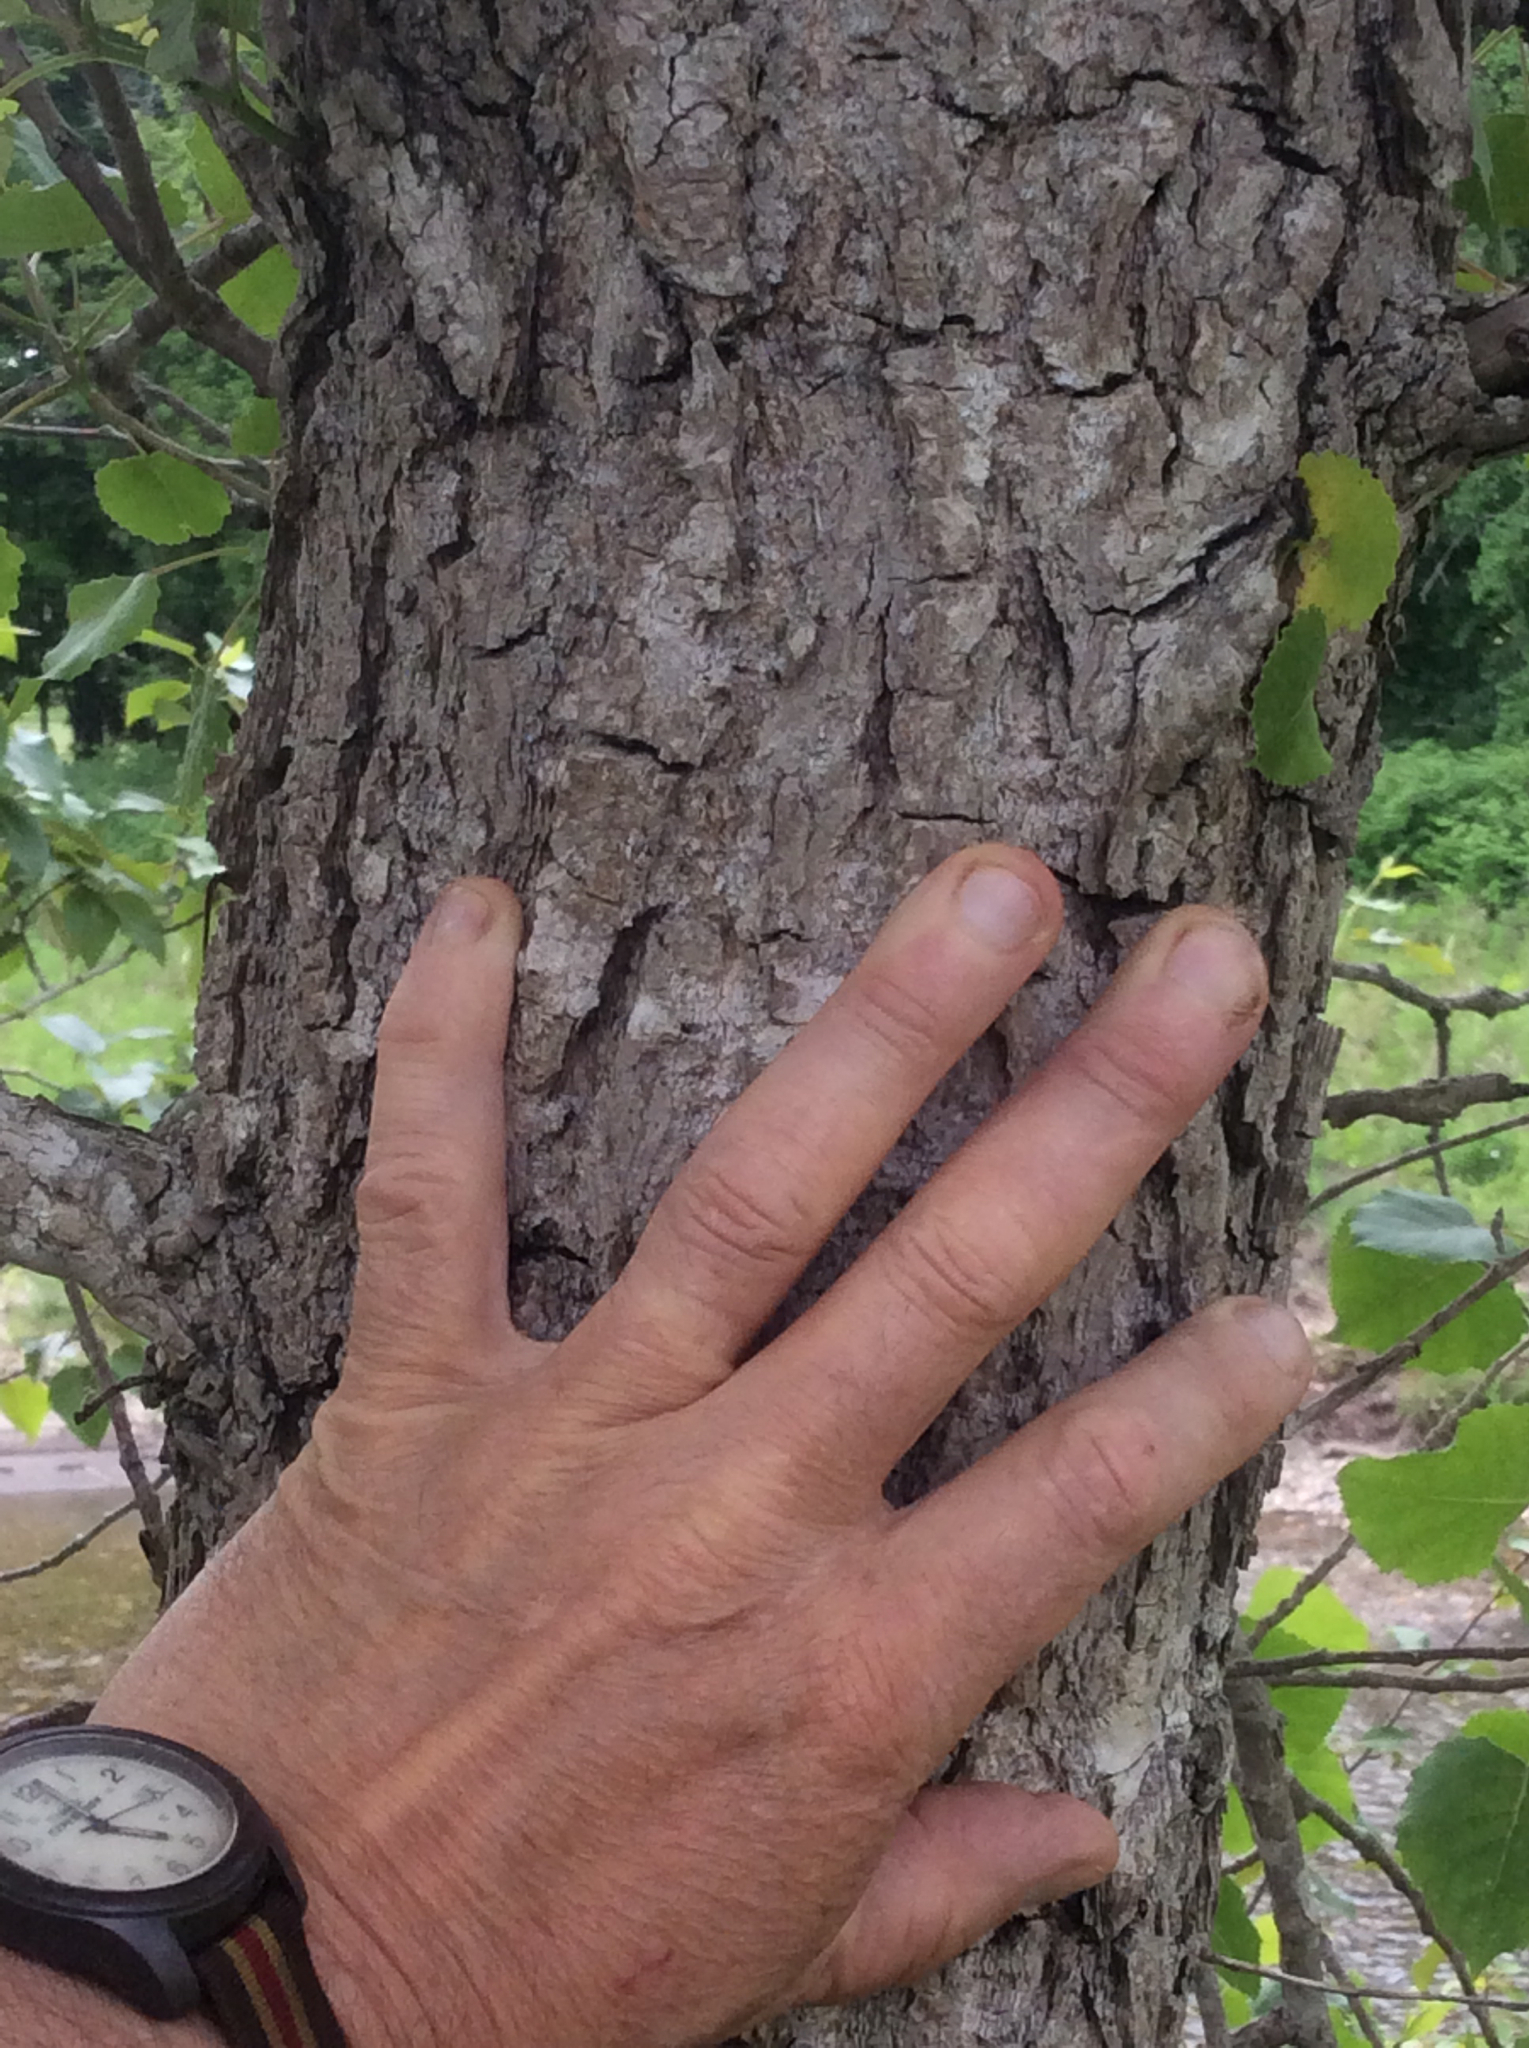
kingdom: Plantae
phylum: Tracheophyta
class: Magnoliopsida
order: Malpighiales
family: Salicaceae
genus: Populus
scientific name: Populus deltoides
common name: Eastern cottonwood
